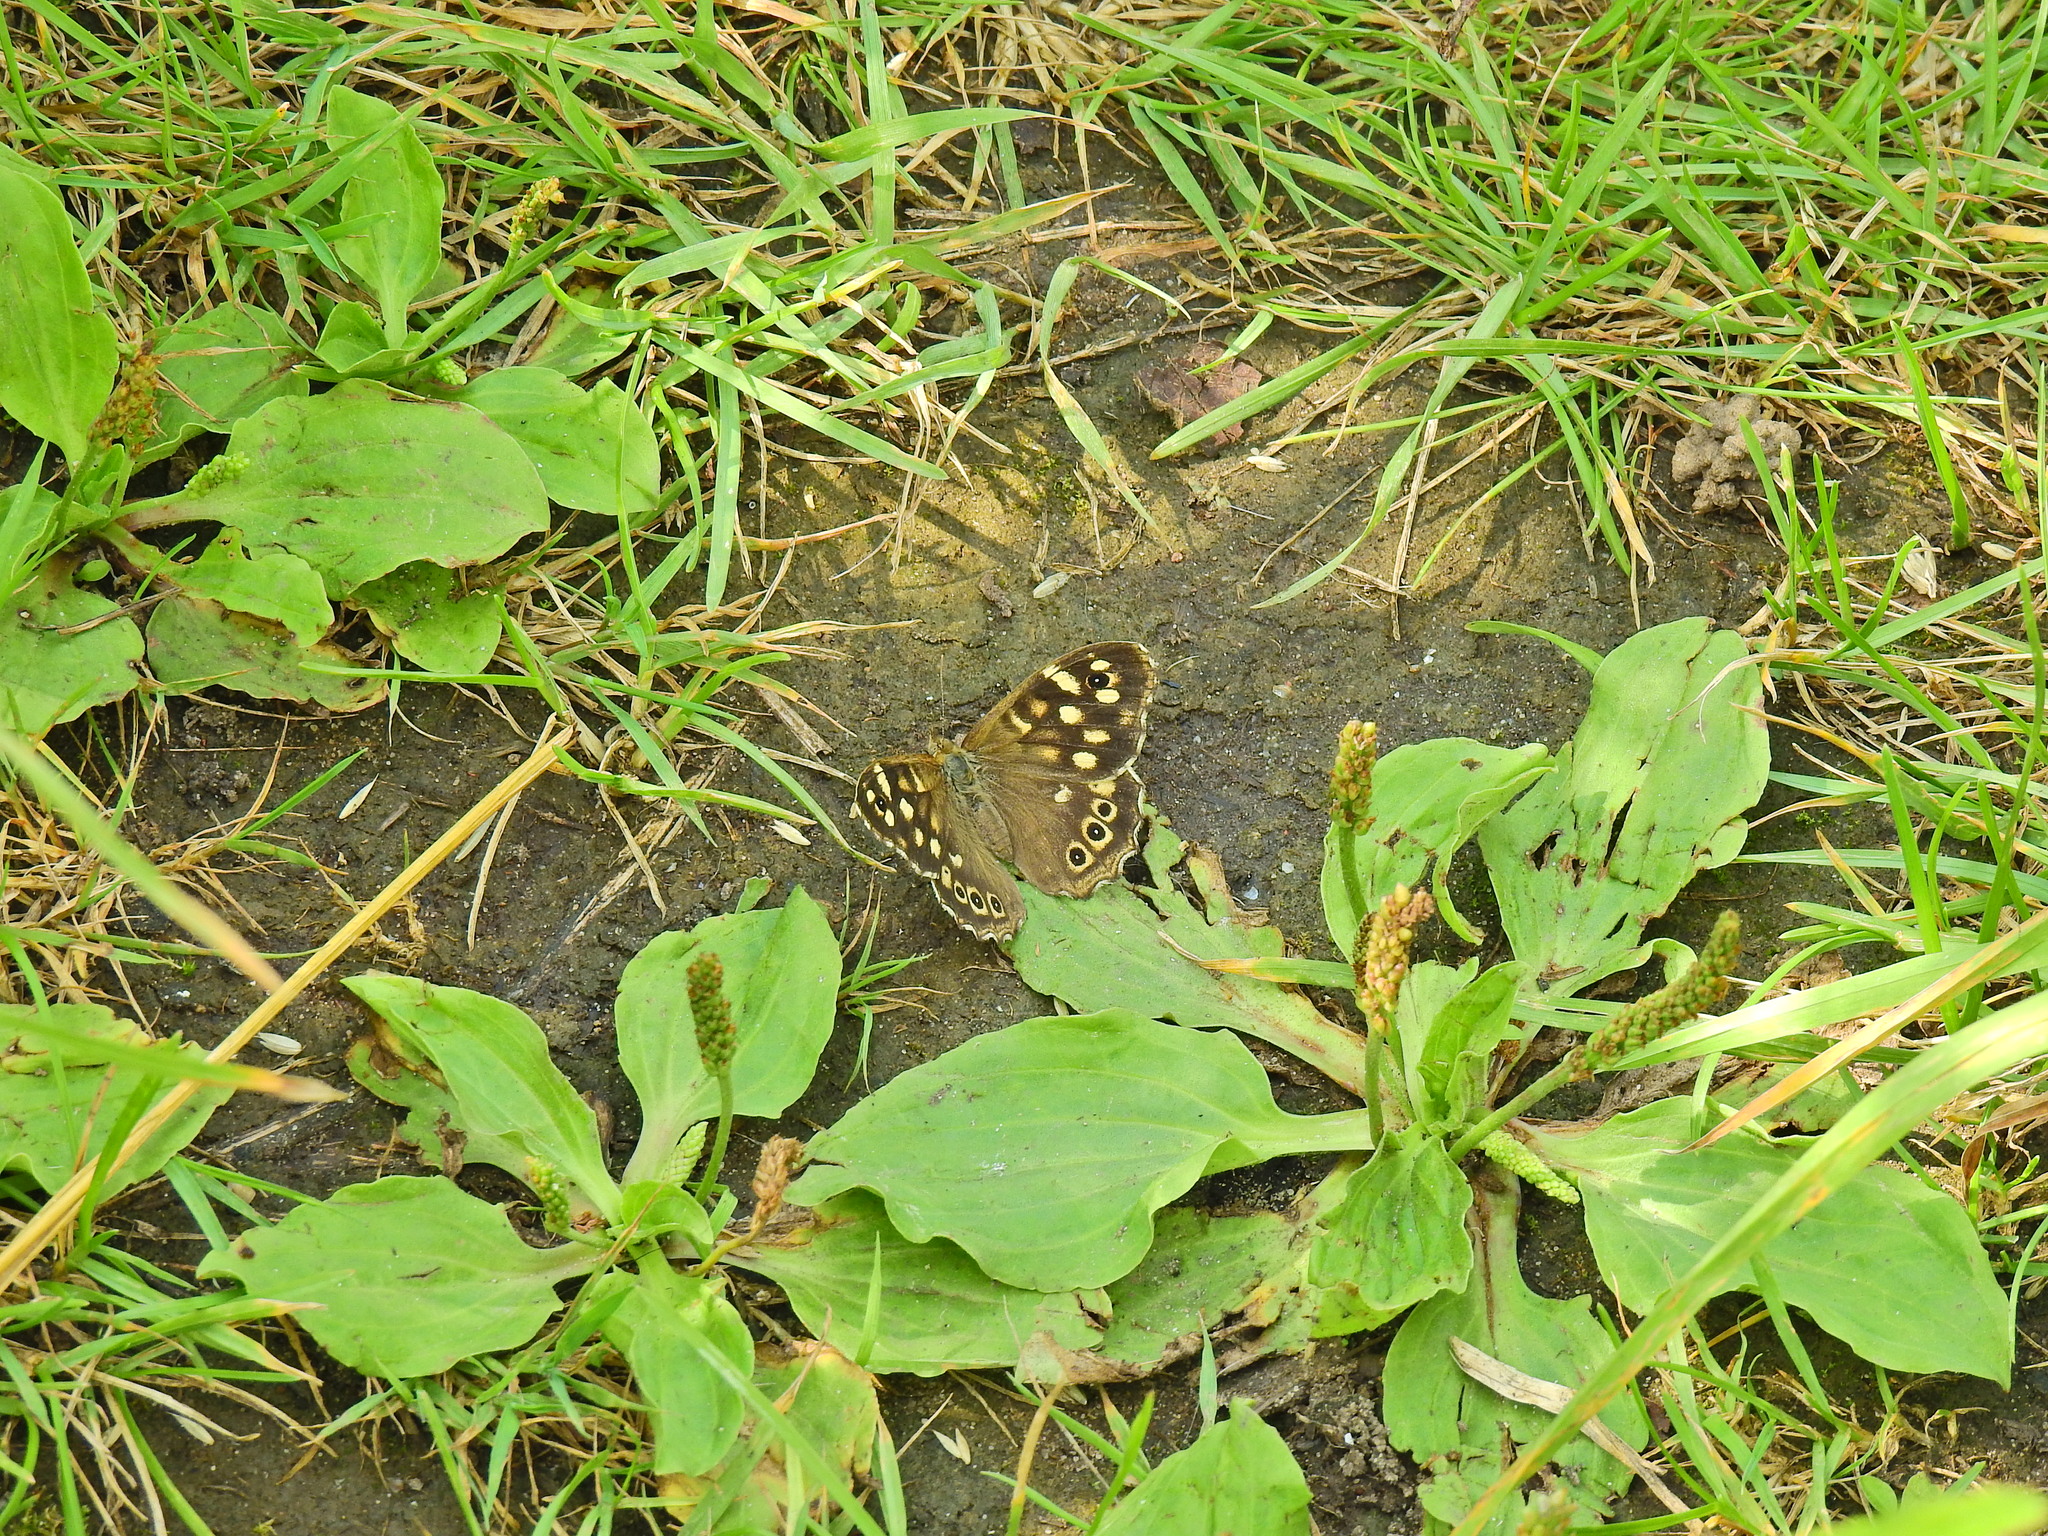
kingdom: Animalia
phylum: Arthropoda
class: Insecta
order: Lepidoptera
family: Nymphalidae
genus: Pararge
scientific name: Pararge aegeria
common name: Speckled wood
